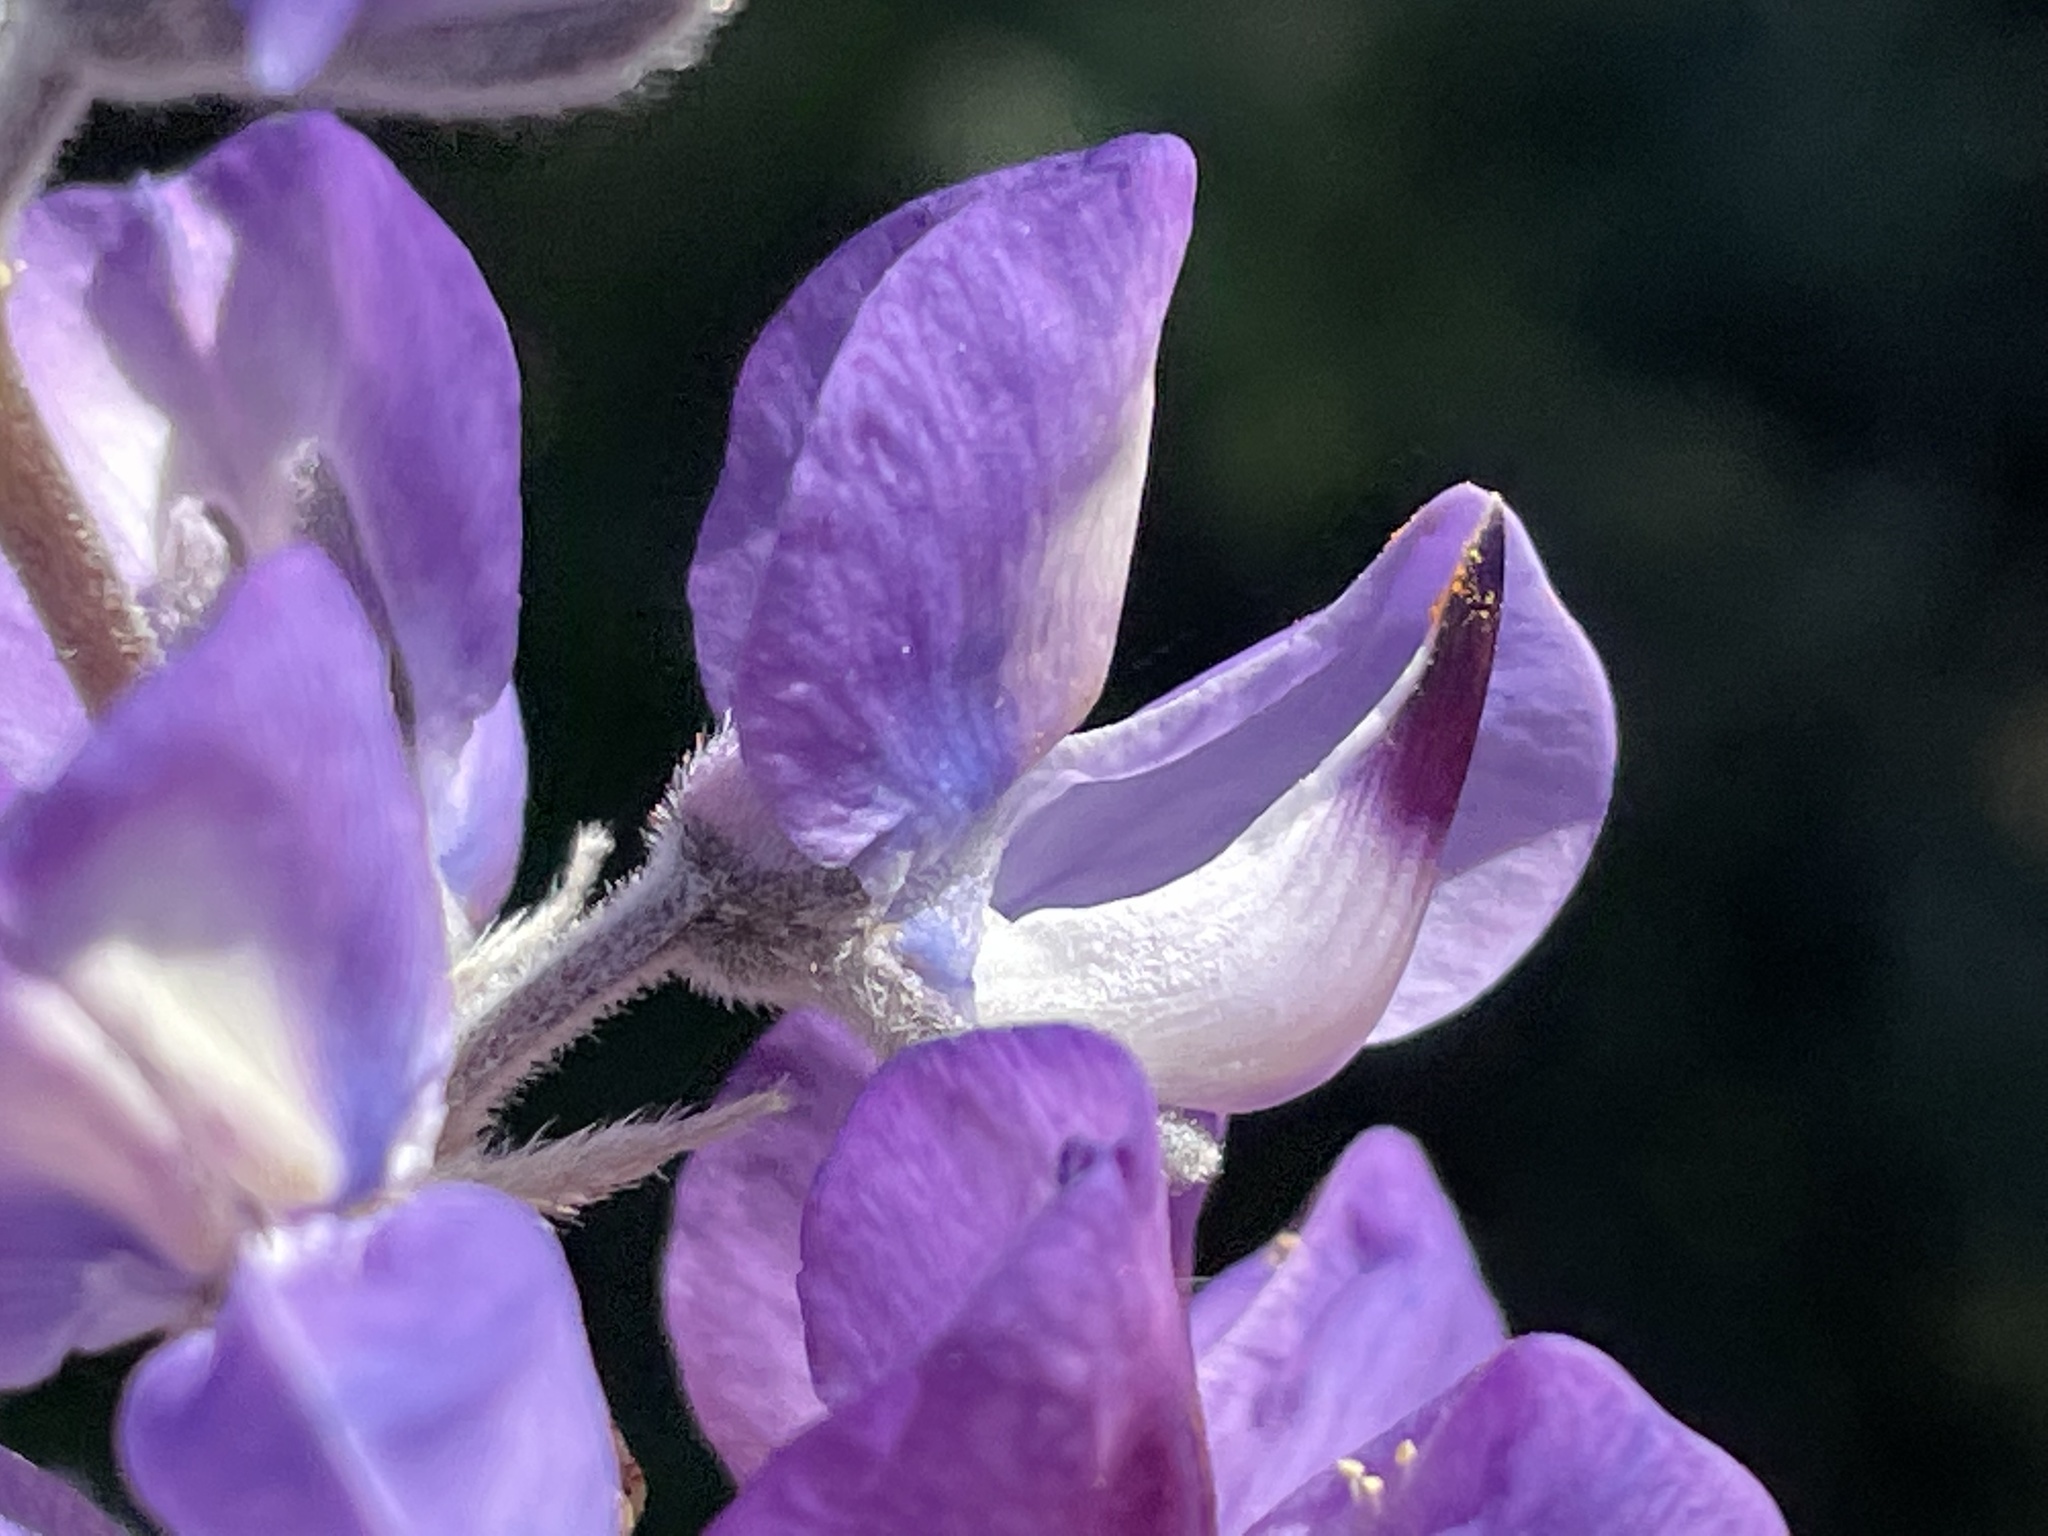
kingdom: Plantae
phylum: Tracheophyta
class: Magnoliopsida
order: Fabales
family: Fabaceae
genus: Lupinus
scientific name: Lupinus chamissonis
